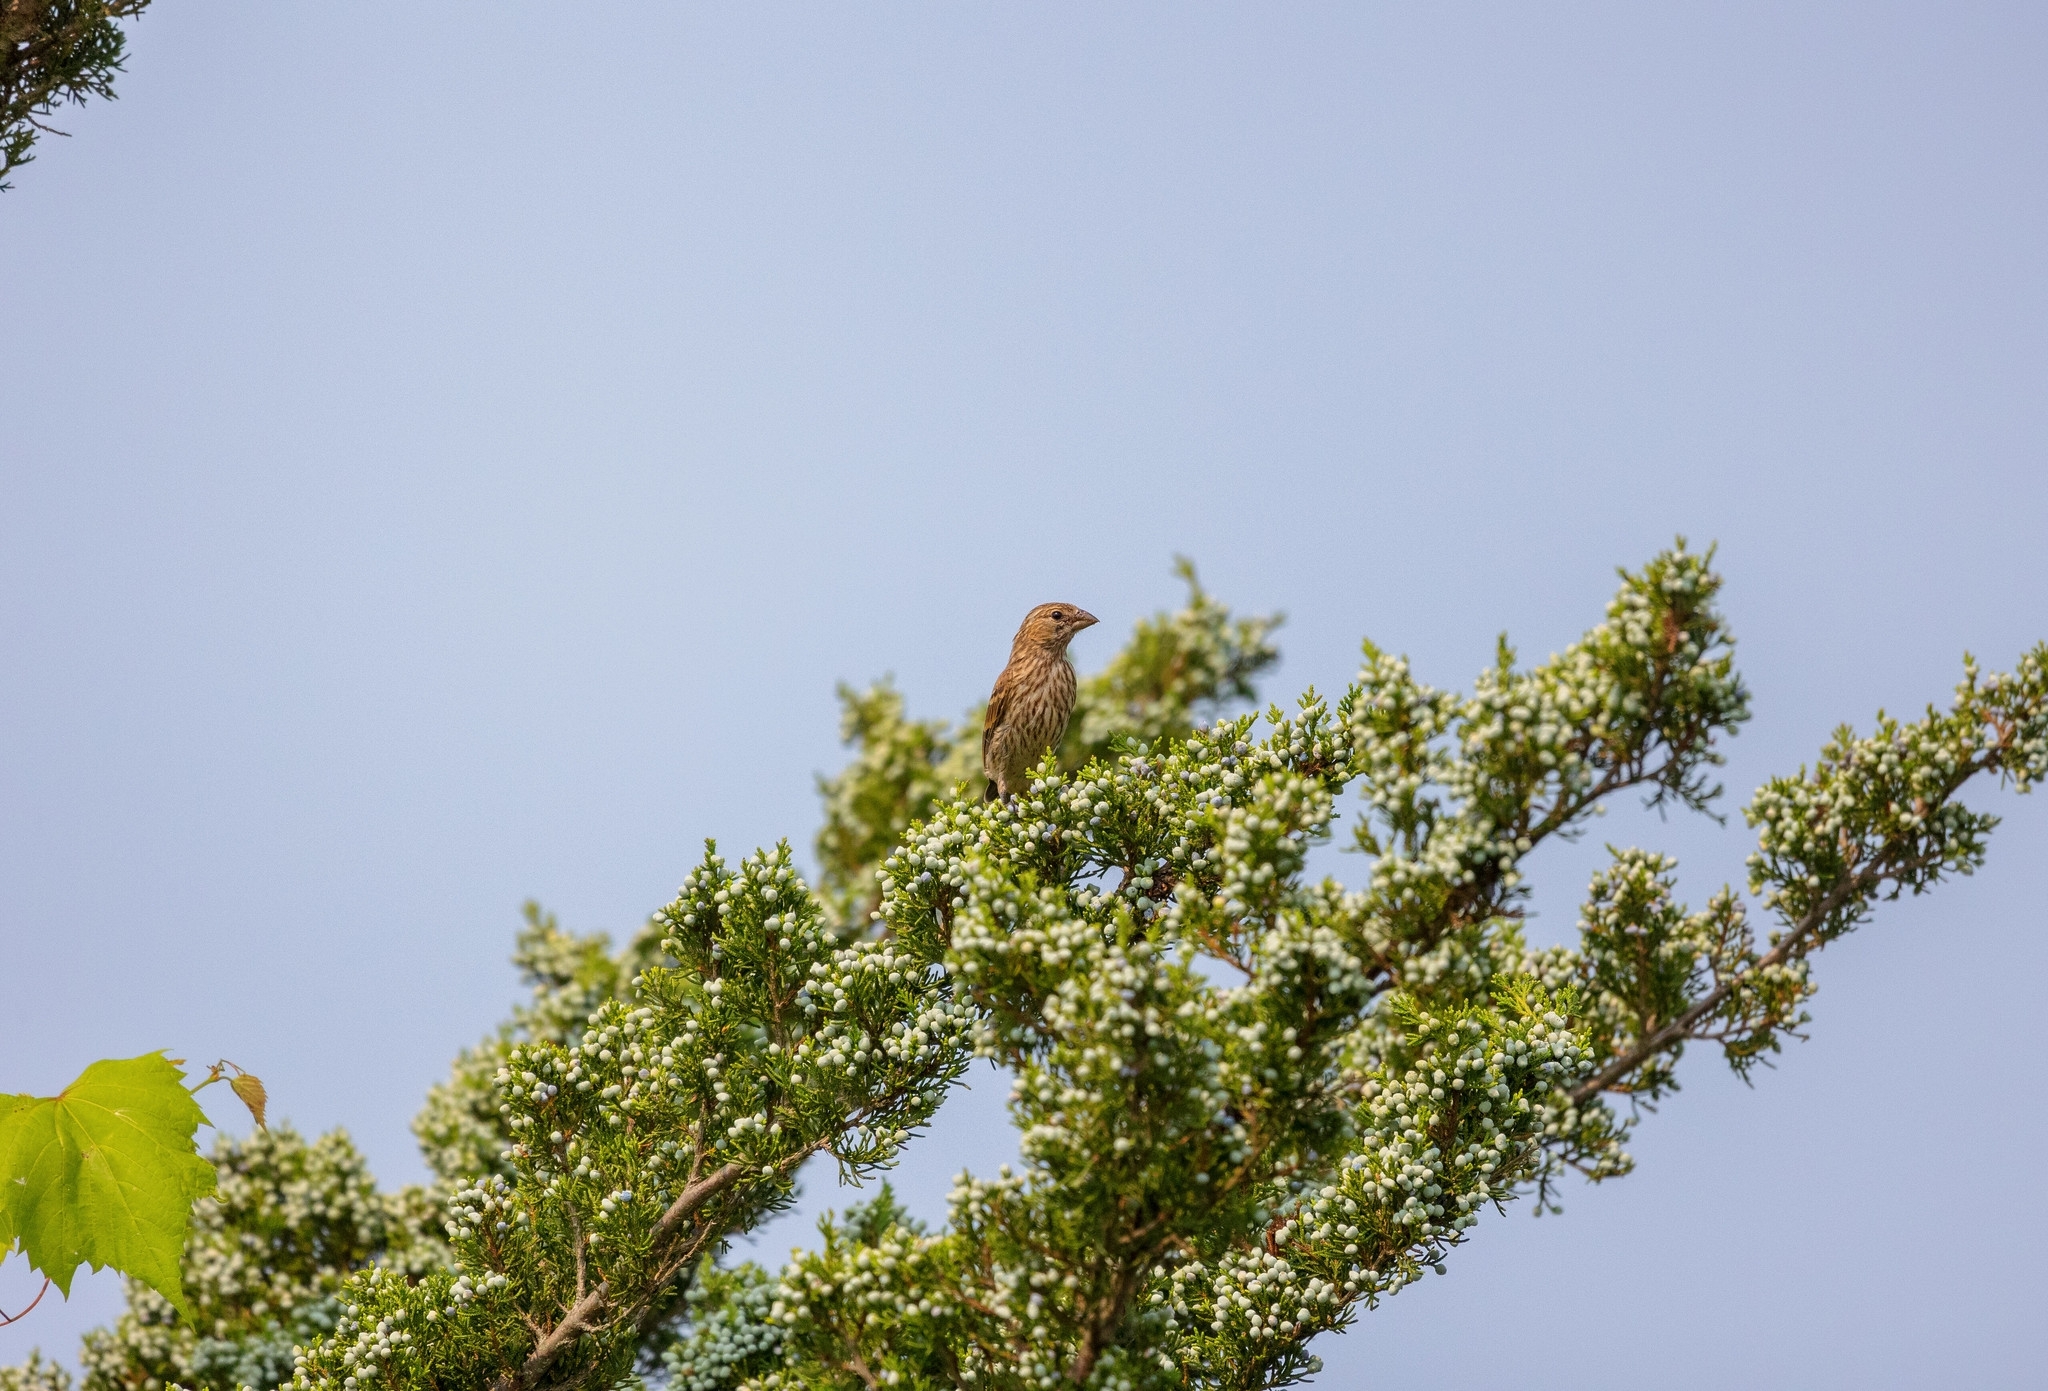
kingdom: Animalia
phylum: Chordata
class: Aves
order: Passeriformes
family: Fringillidae
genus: Haemorhous
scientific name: Haemorhous mexicanus
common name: House finch
